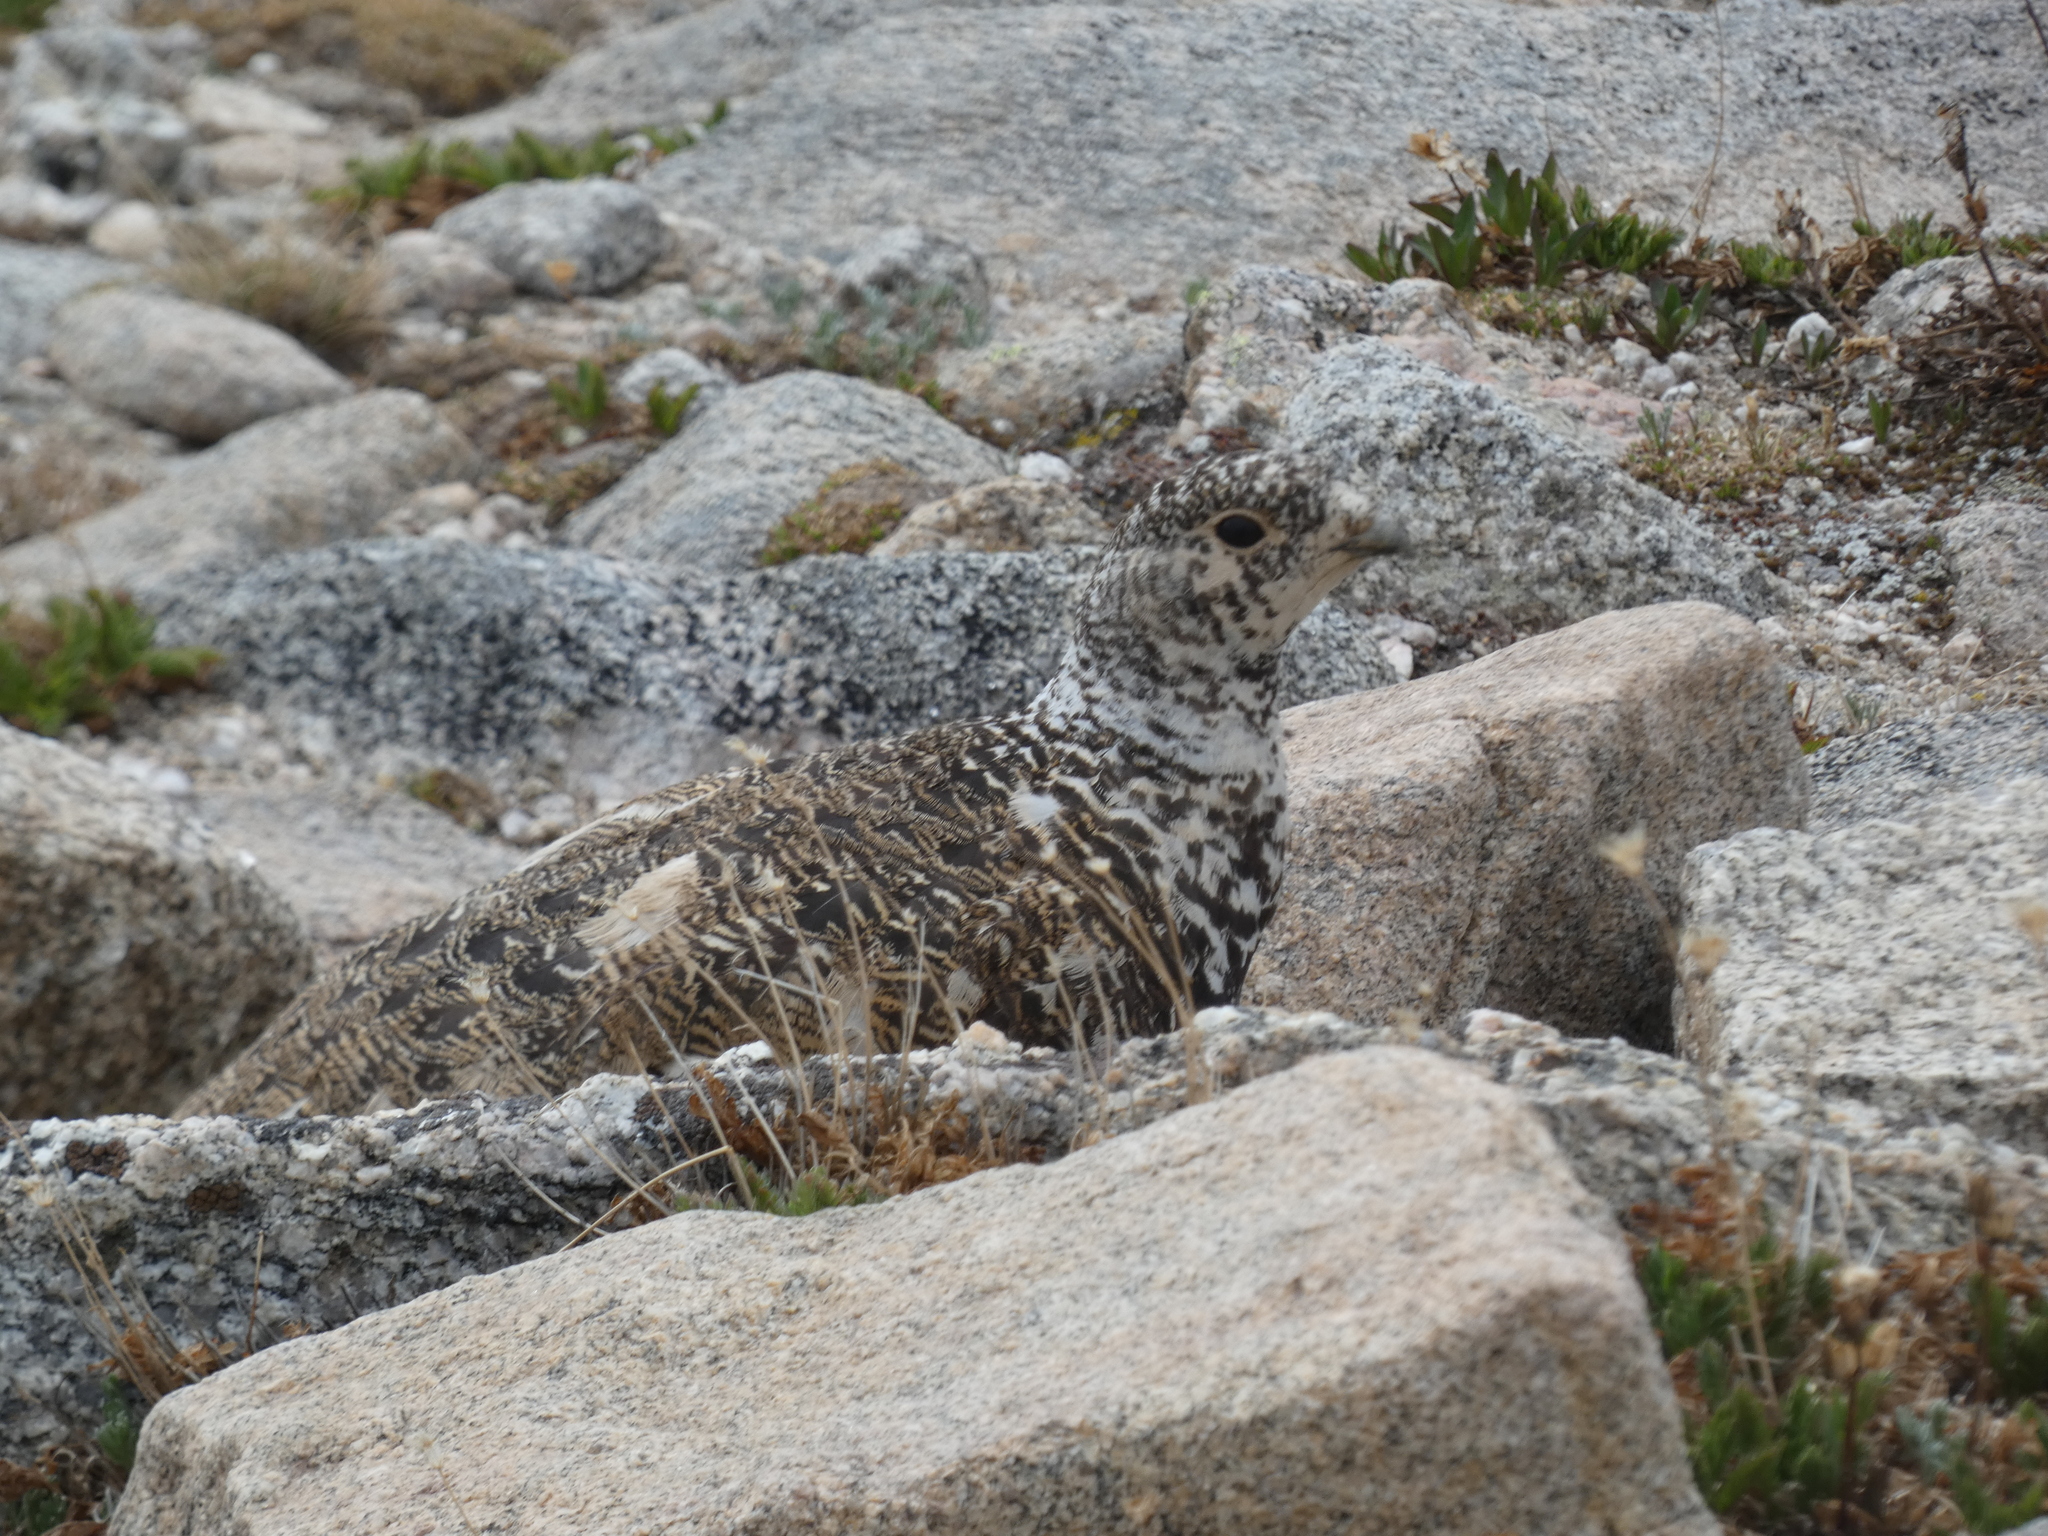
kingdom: Animalia
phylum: Chordata
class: Aves
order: Galliformes
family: Phasianidae
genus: Lagopus
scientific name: Lagopus leucura
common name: White-tailed ptarmigan
